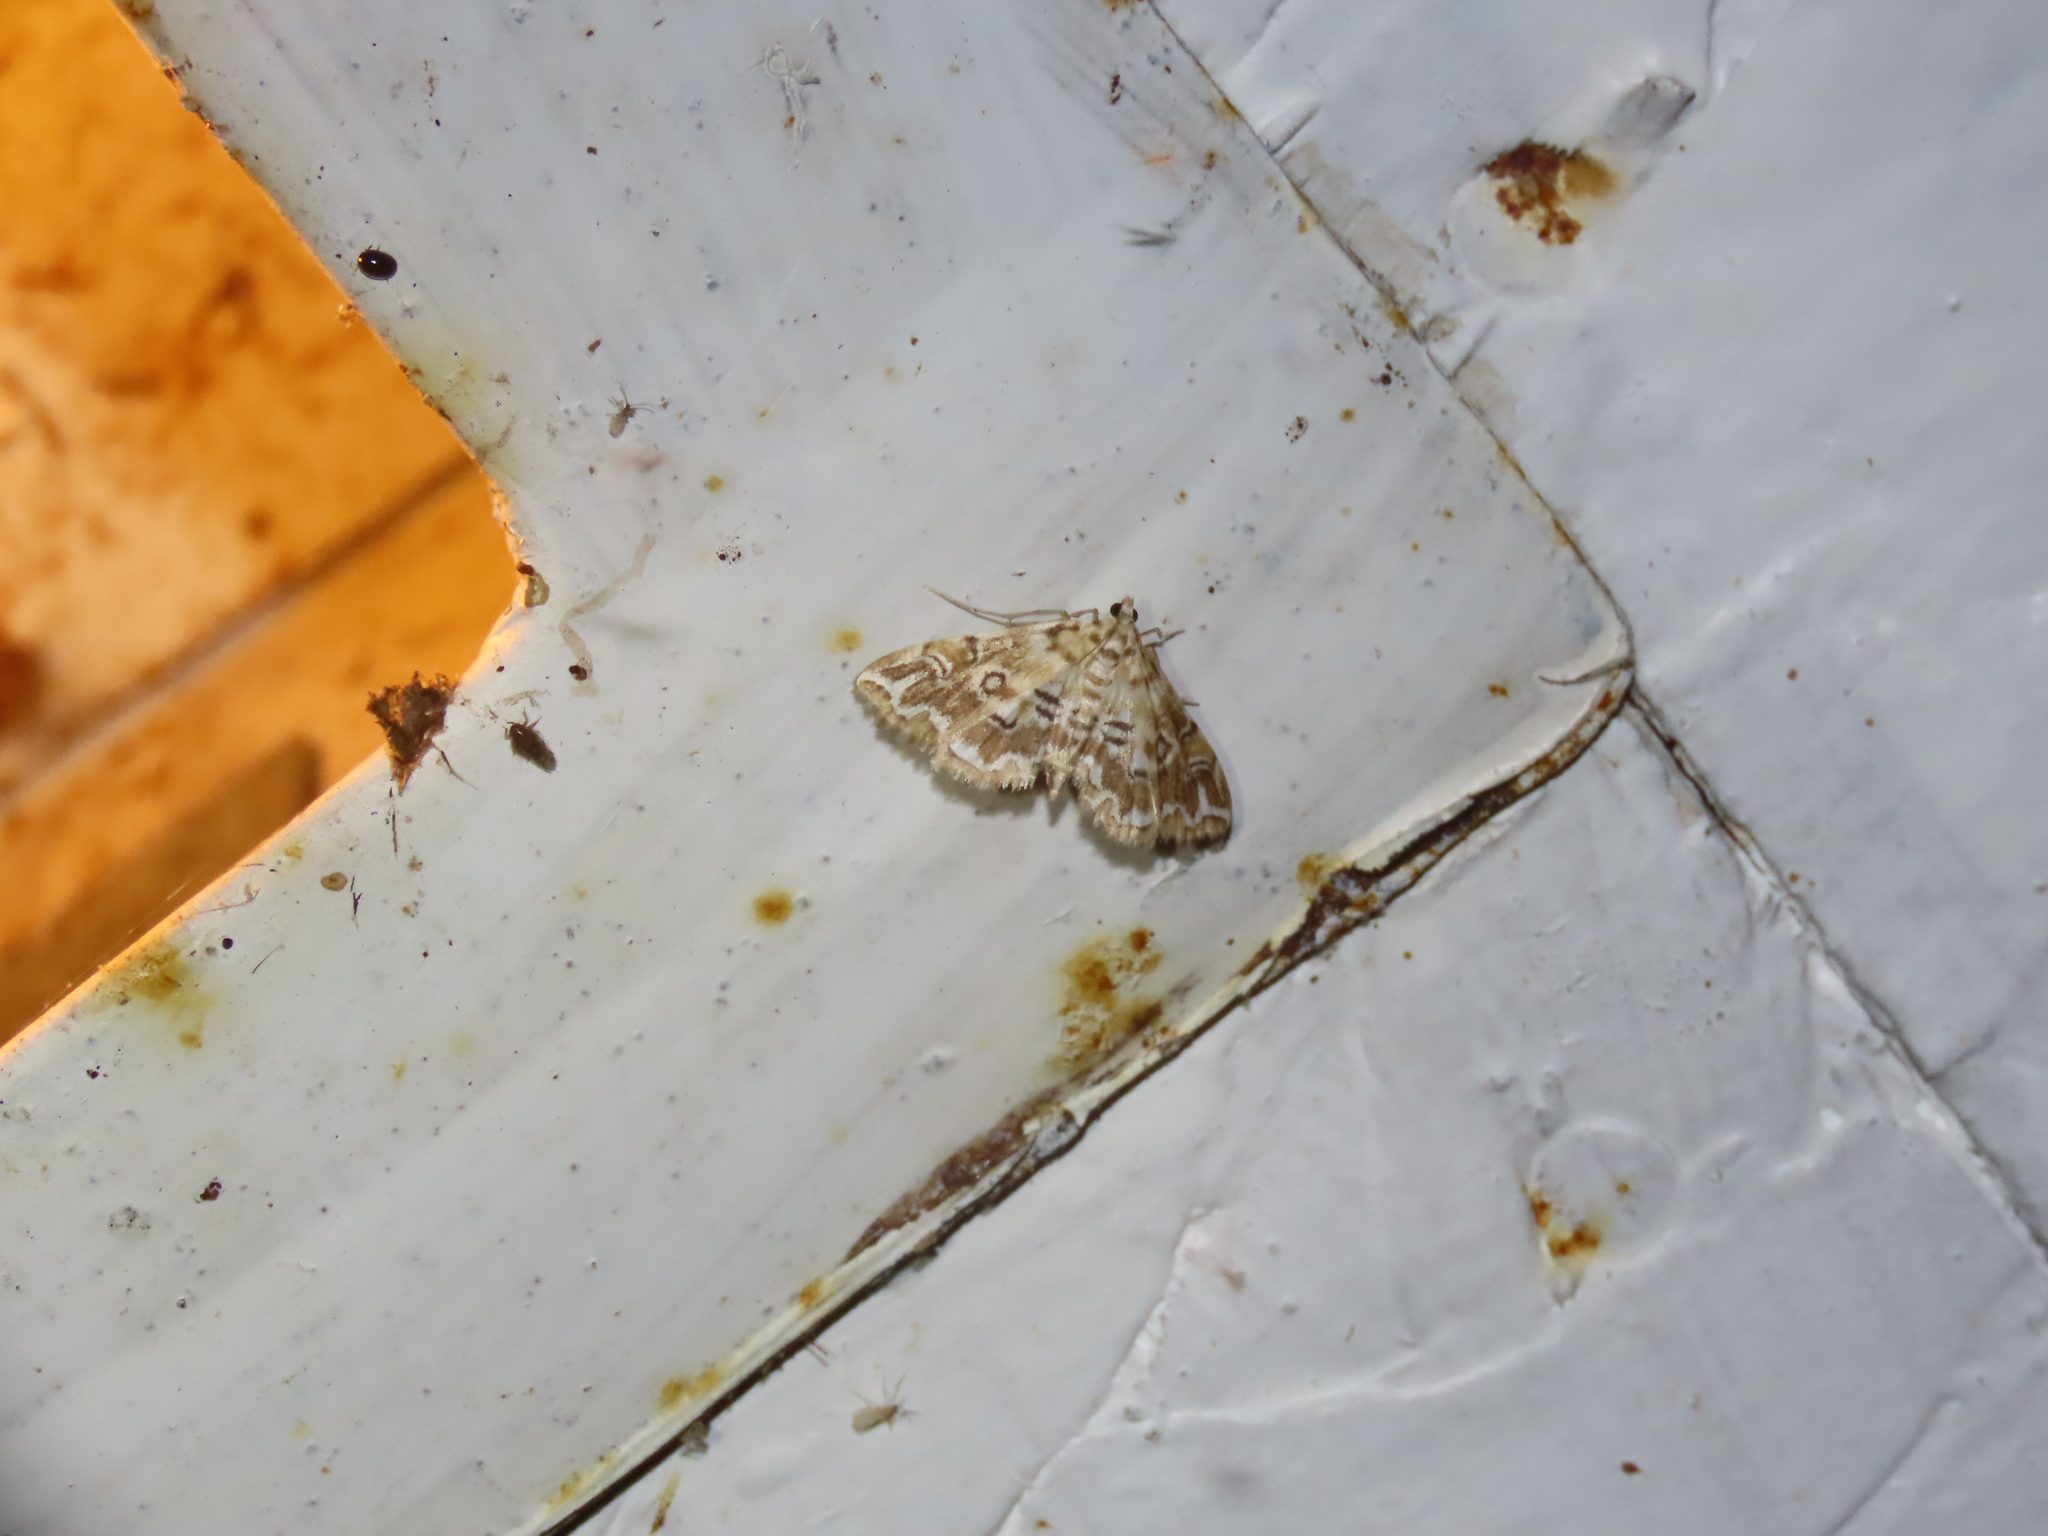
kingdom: Animalia
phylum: Arthropoda
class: Insecta
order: Lepidoptera
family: Crambidae
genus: Elophila
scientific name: Elophila icciusalis
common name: Pondside pyralid moth
